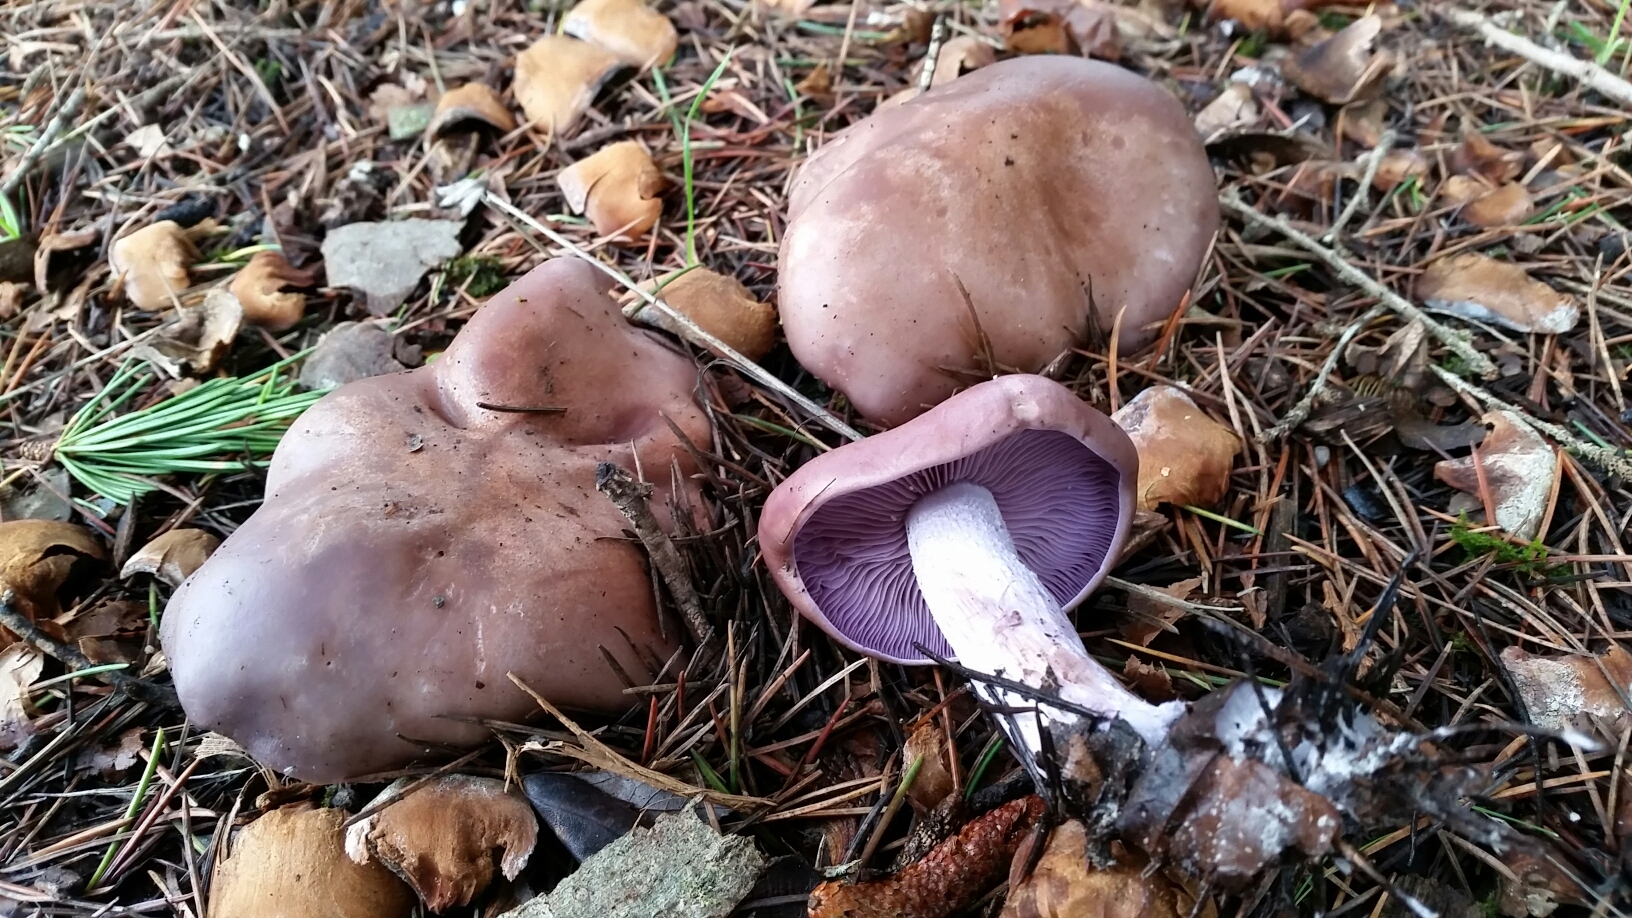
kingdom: Fungi
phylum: Basidiomycota
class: Agaricomycetes
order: Agaricales
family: Tricholomataceae
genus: Collybia
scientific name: Collybia
